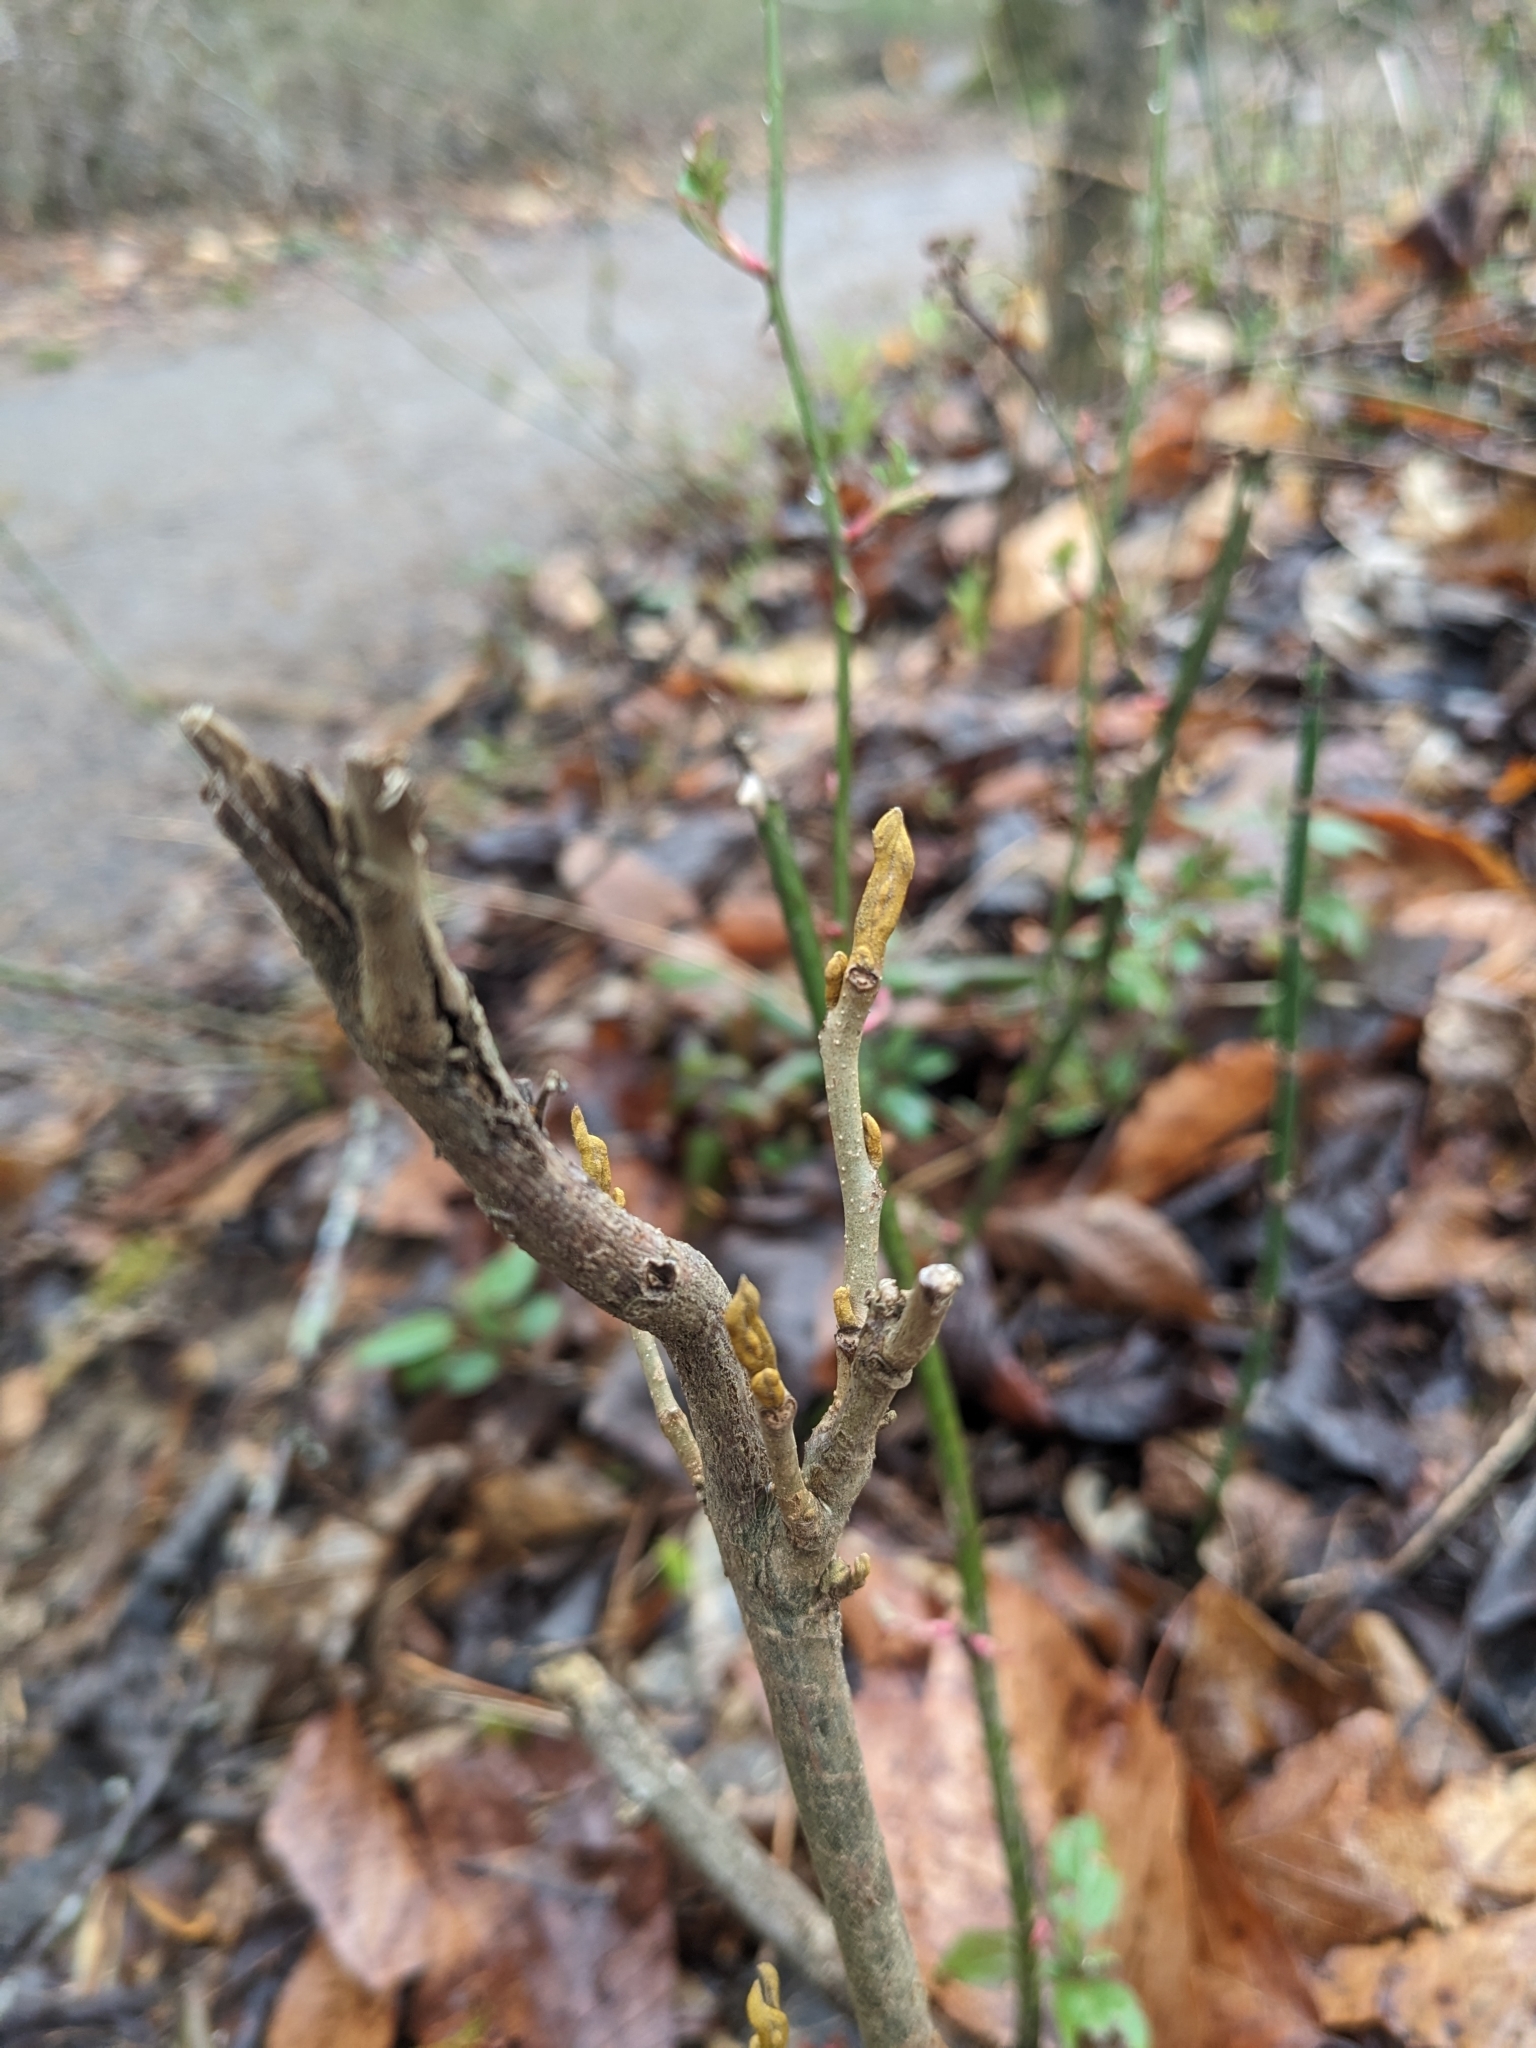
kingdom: Plantae
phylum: Tracheophyta
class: Magnoliopsida
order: Fagales
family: Juglandaceae
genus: Carya
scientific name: Carya cordiformis
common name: Bitternut hickory
